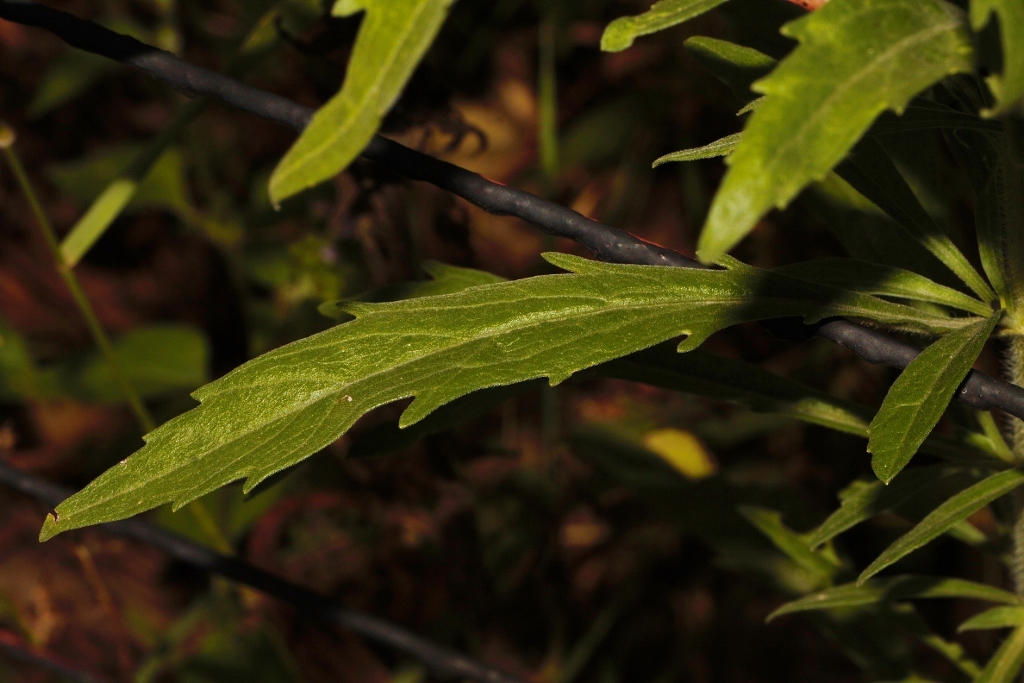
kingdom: Plantae
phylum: Tracheophyta
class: Magnoliopsida
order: Asterales
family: Asteraceae
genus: Erigeron
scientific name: Erigeron sumatrensis
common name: Daisy
